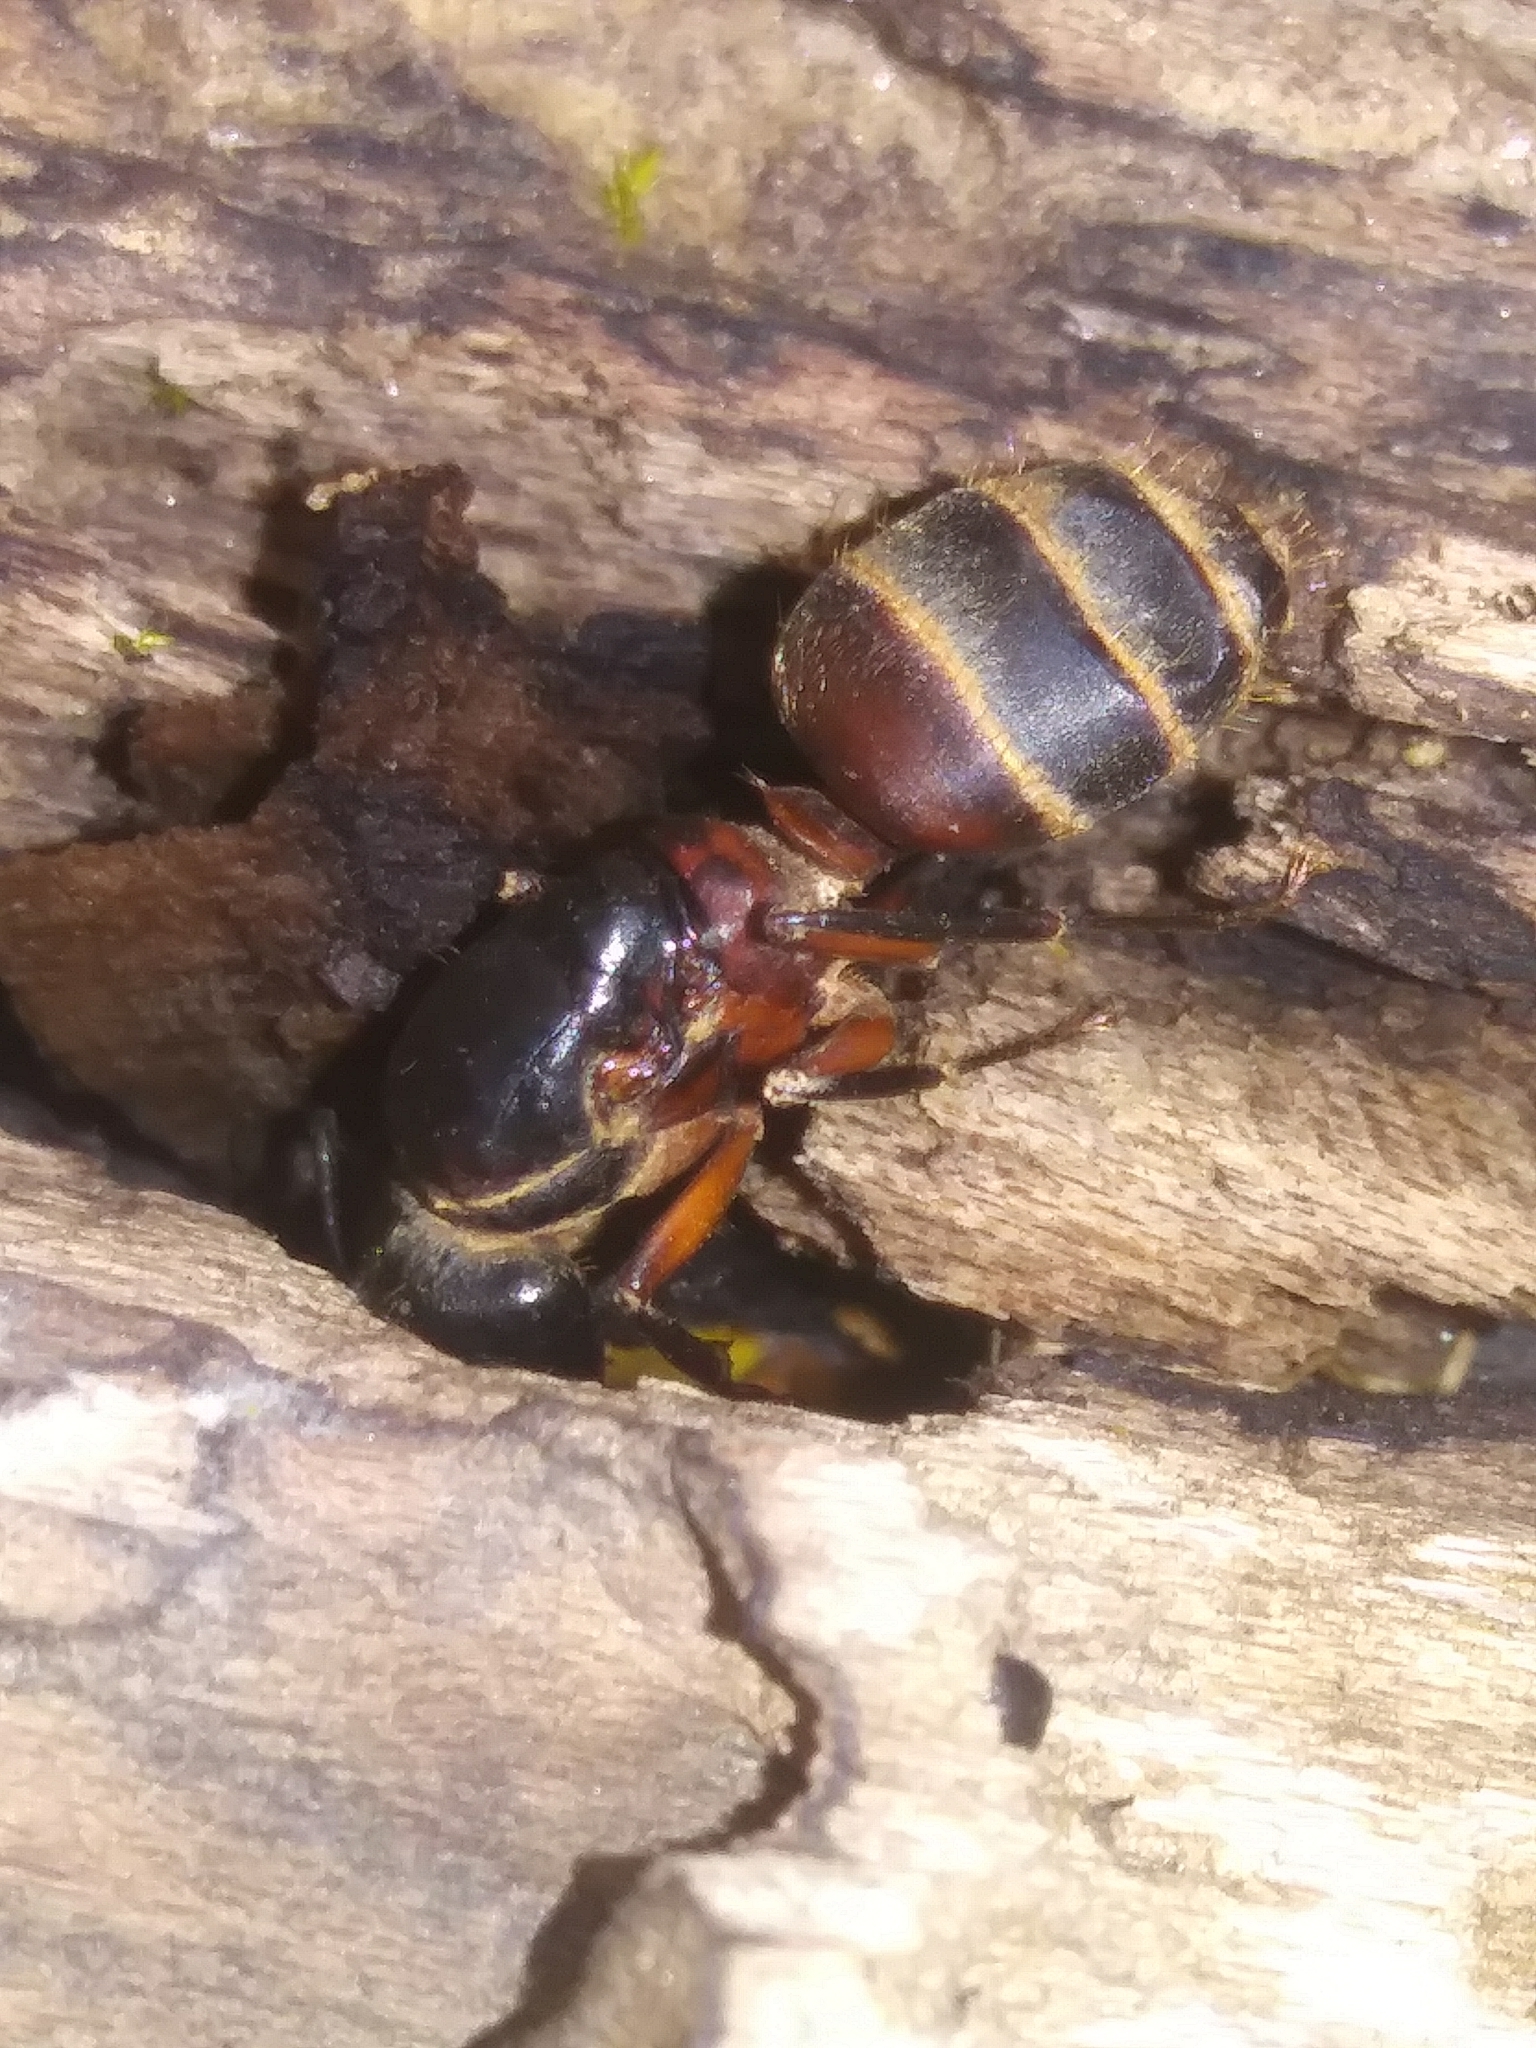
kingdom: Animalia
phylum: Arthropoda
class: Insecta
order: Hymenoptera
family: Formicidae
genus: Camponotus
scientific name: Camponotus chromaiodes
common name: Red carpenter ant
